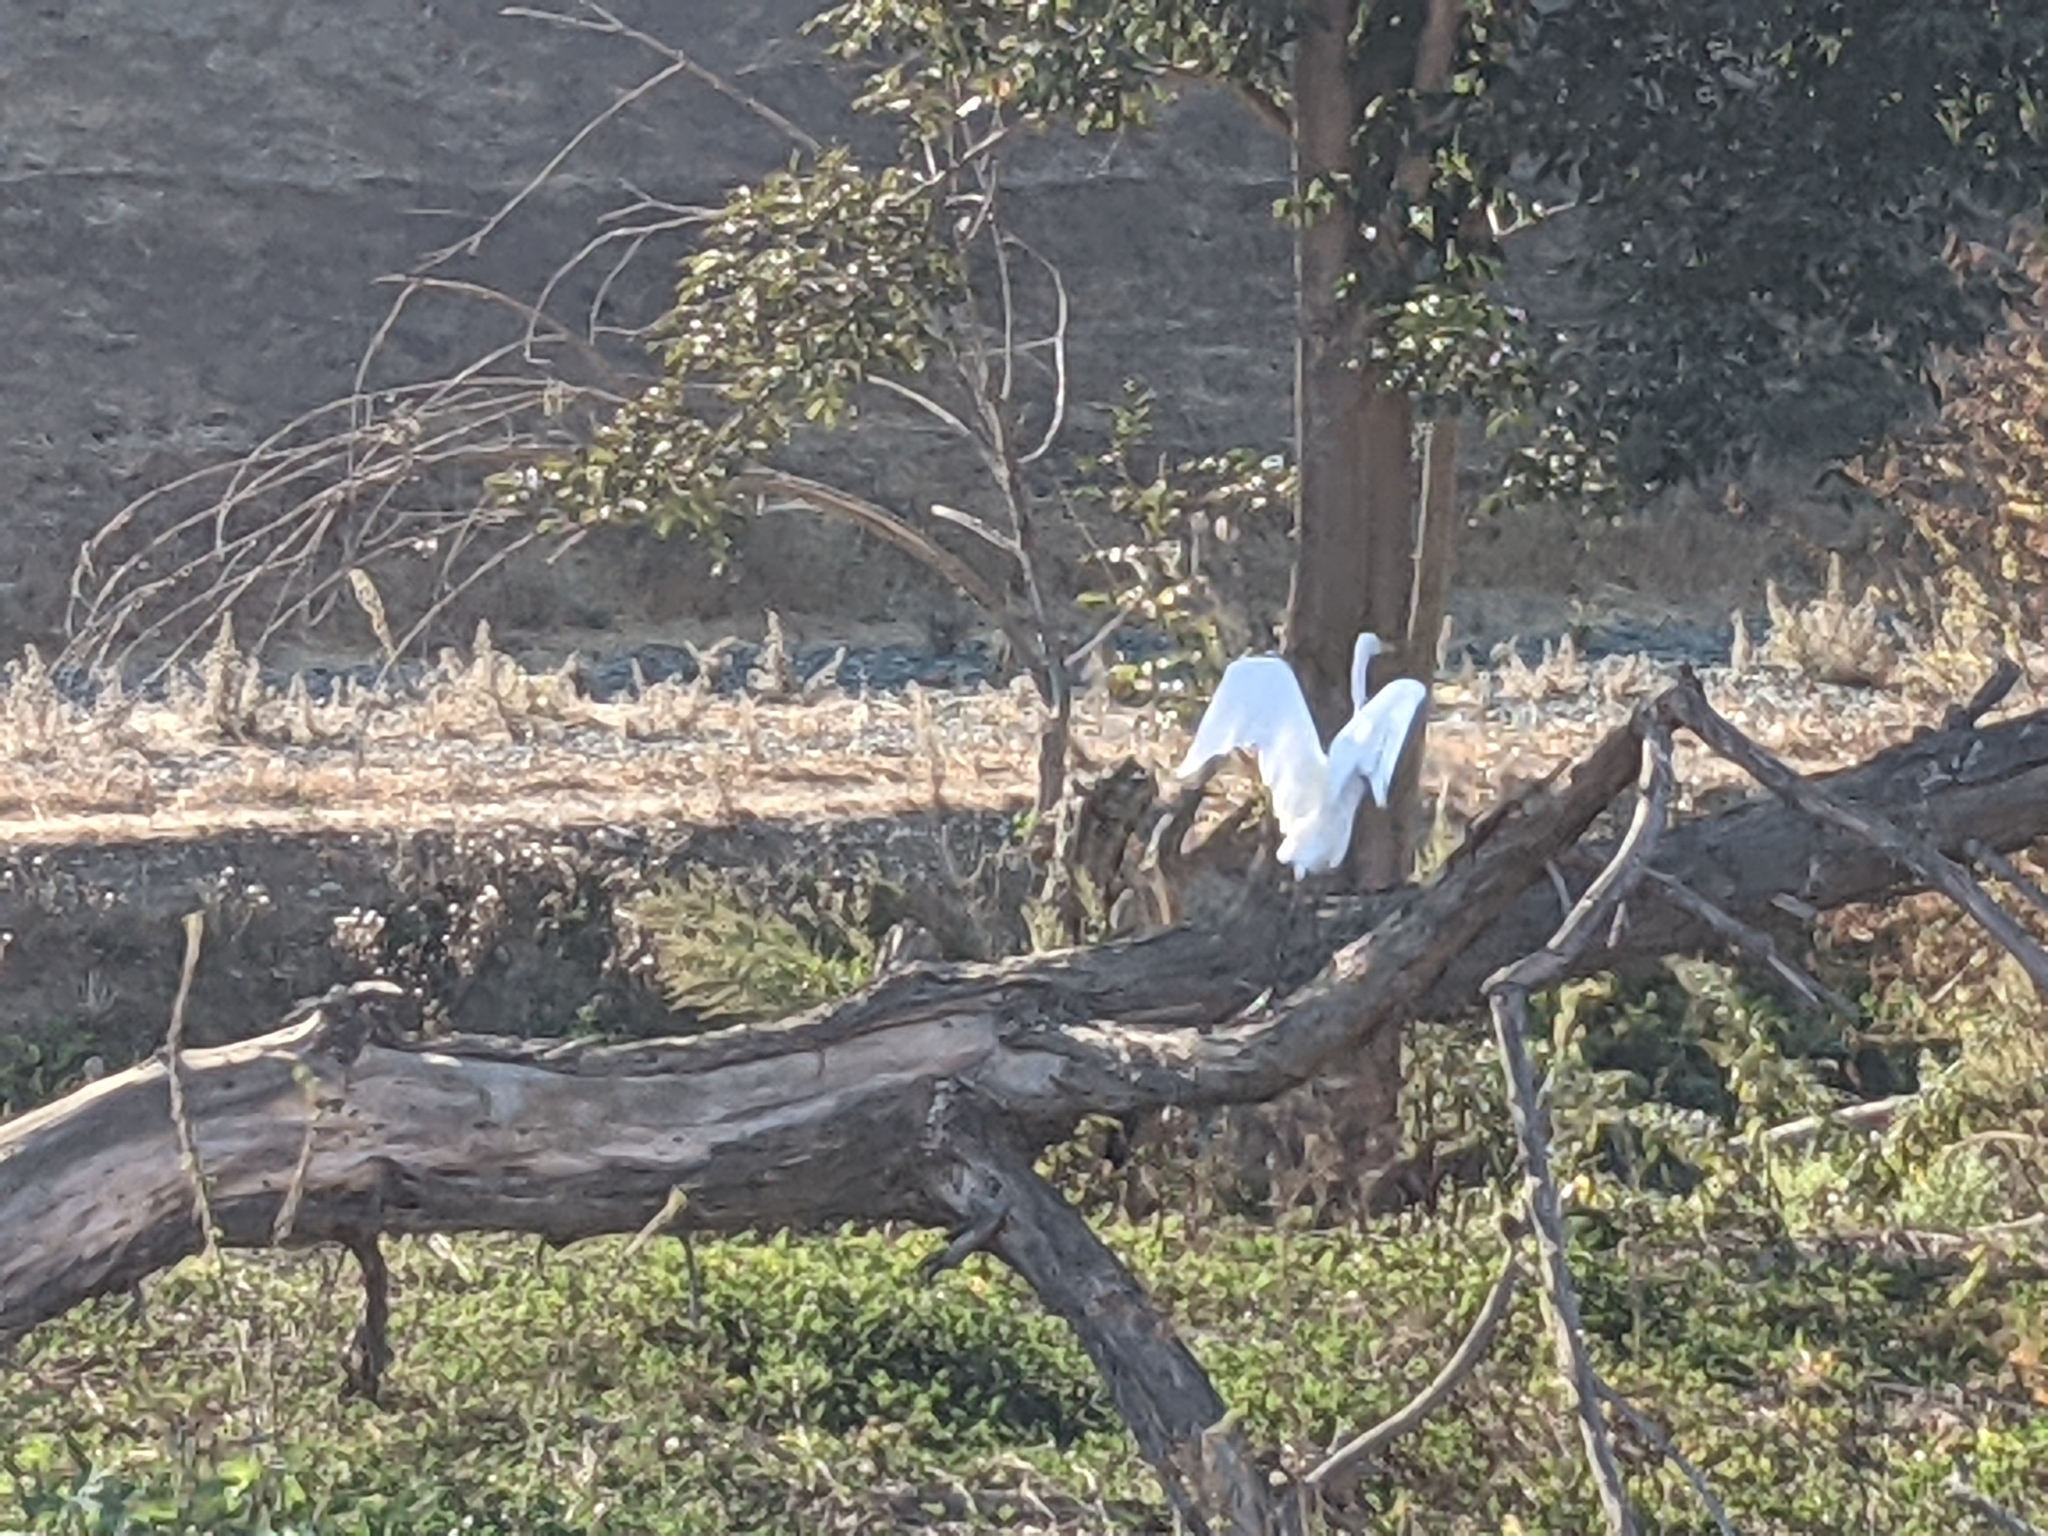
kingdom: Animalia
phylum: Chordata
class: Aves
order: Pelecaniformes
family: Ardeidae
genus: Ardea
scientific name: Ardea alba
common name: Great egret
